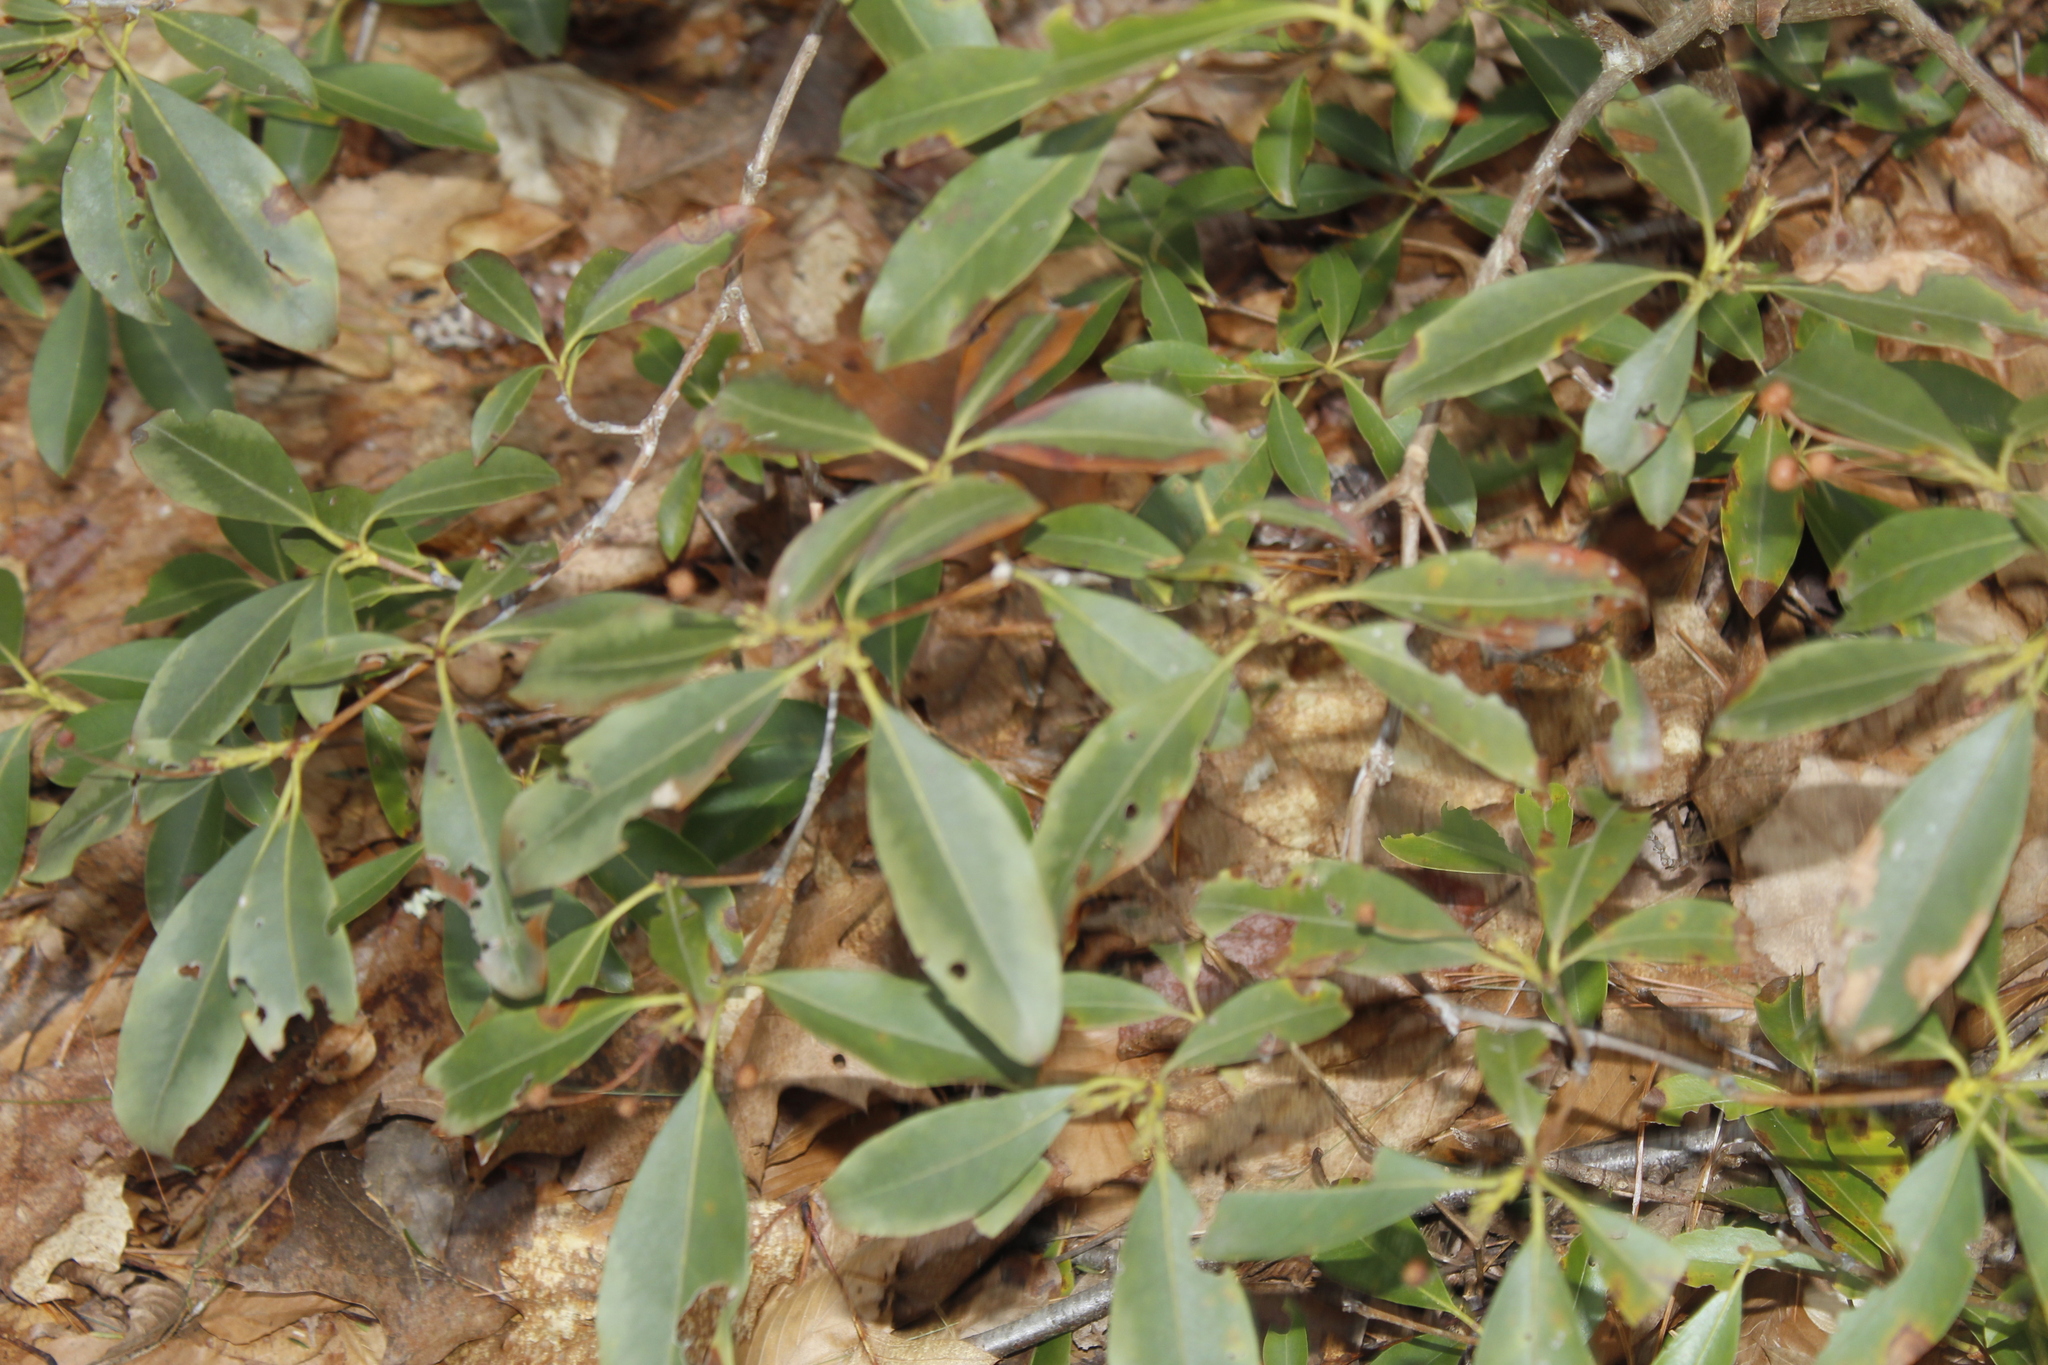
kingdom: Plantae
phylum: Tracheophyta
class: Magnoliopsida
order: Ericales
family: Ericaceae
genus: Kalmia
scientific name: Kalmia latifolia
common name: Mountain-laurel
